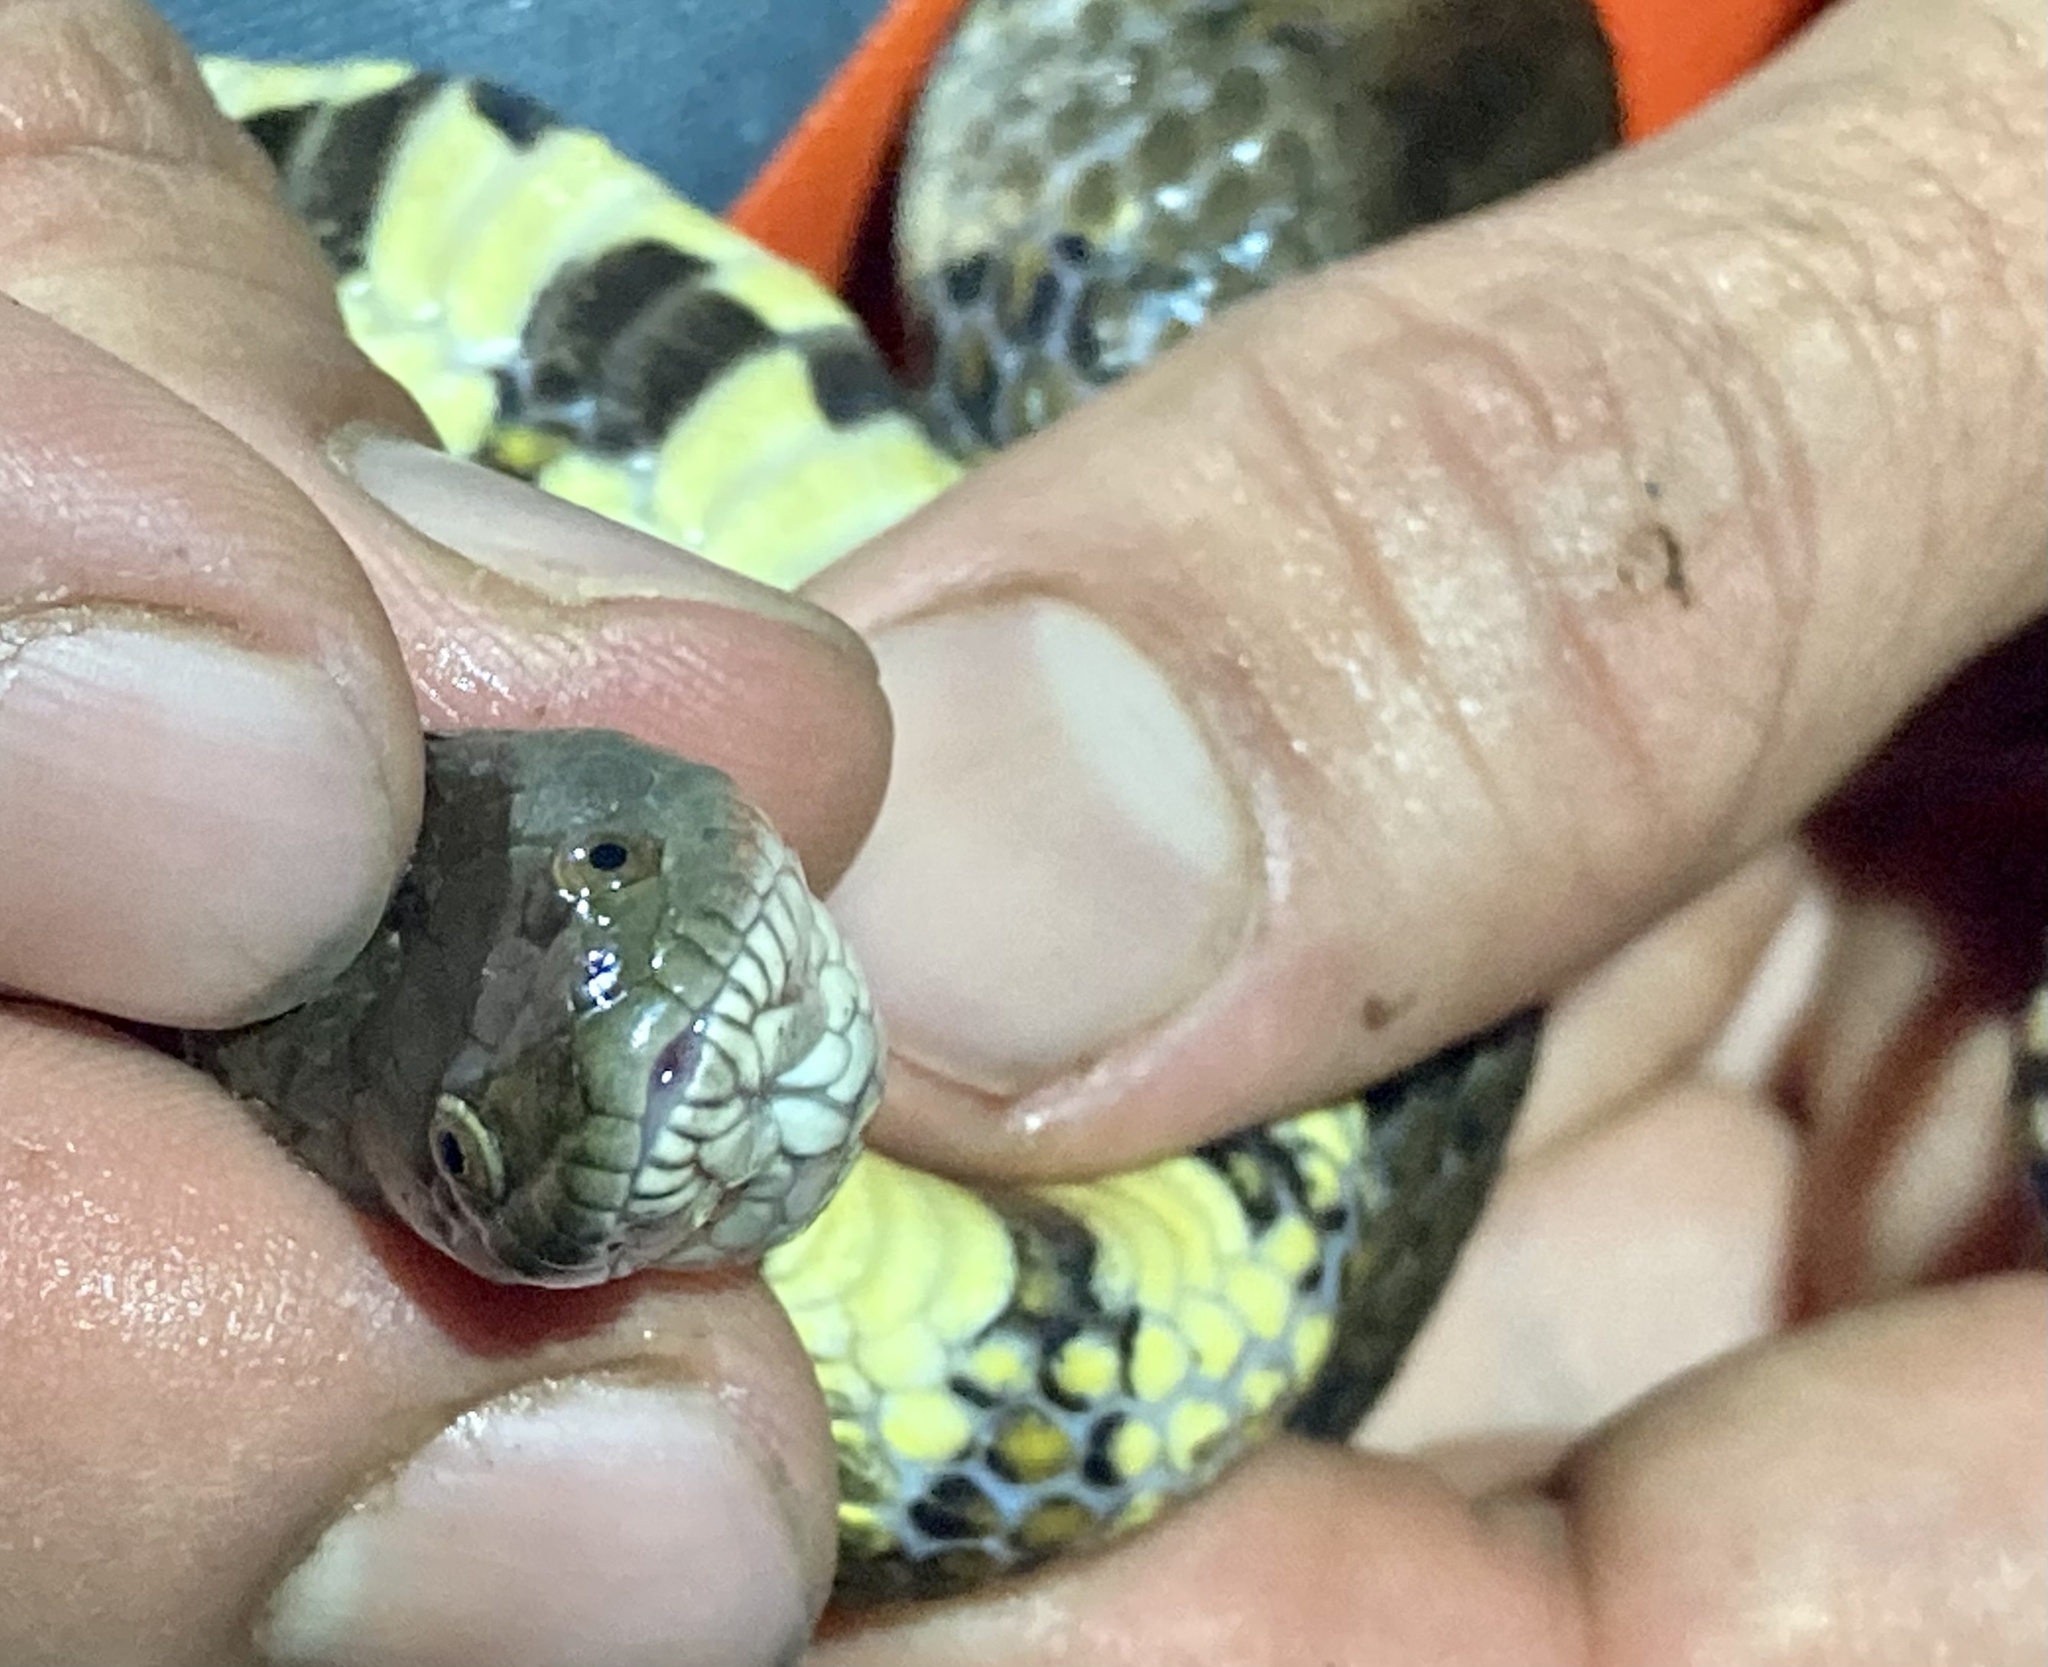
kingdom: Animalia
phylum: Chordata
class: Squamata
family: Colubridae
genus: Helicops
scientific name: Helicops angulatus
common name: Mountain keelback
